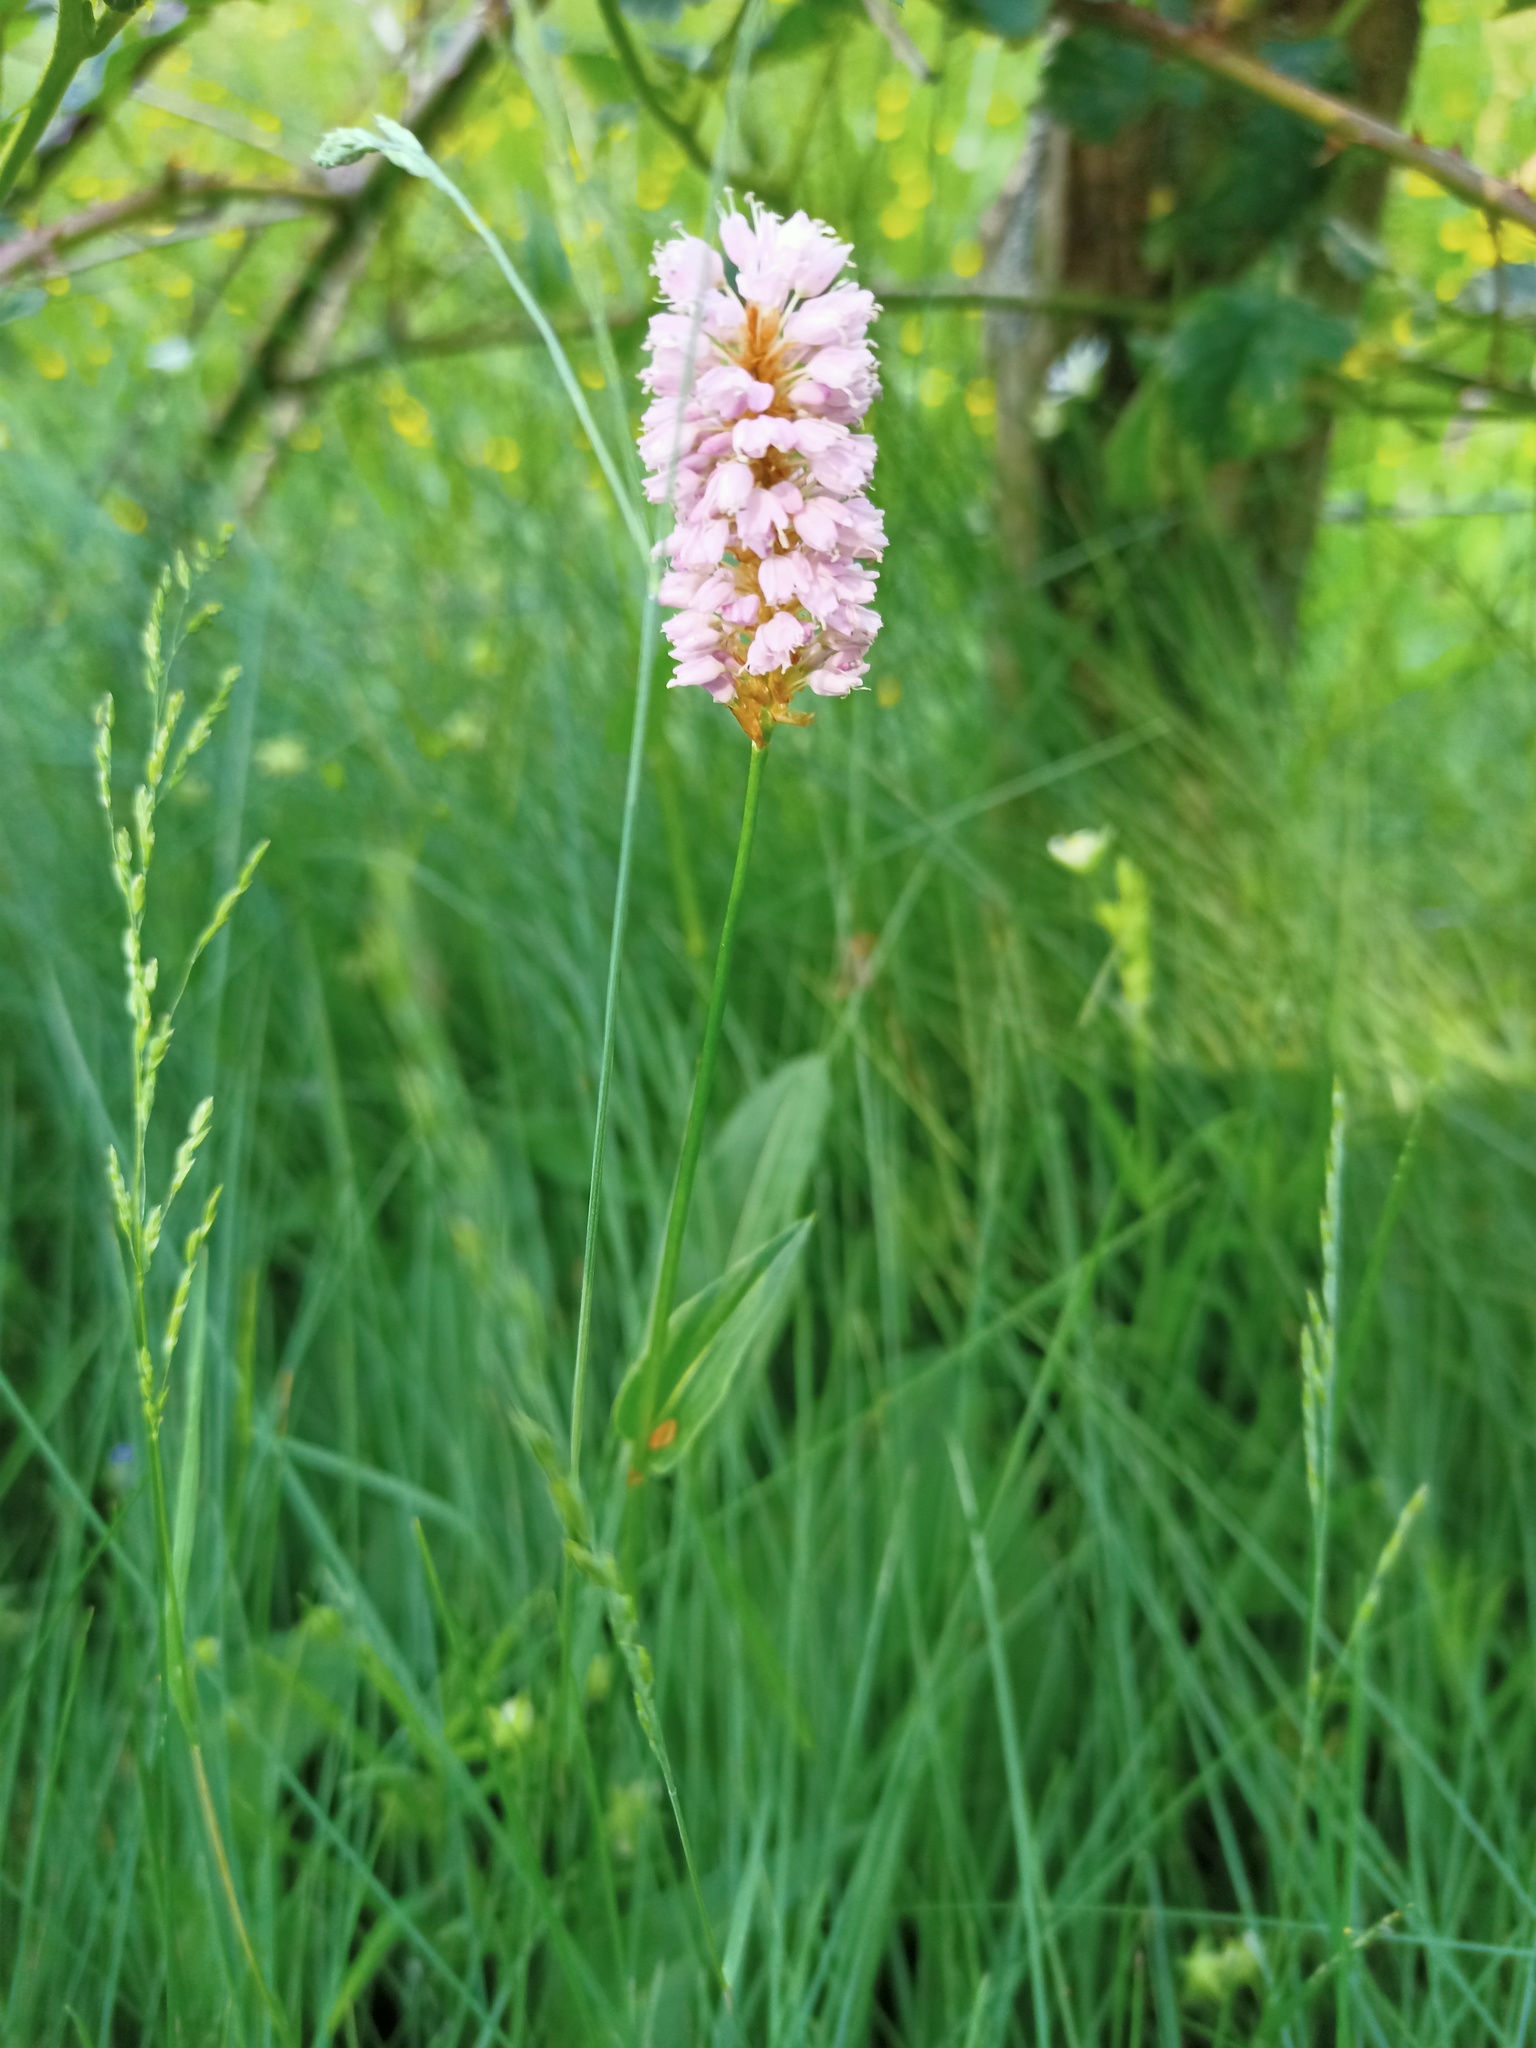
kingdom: Plantae
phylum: Tracheophyta
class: Magnoliopsida
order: Caryophyllales
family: Polygonaceae
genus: Bistorta
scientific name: Bistorta officinalis
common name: Common bistort
